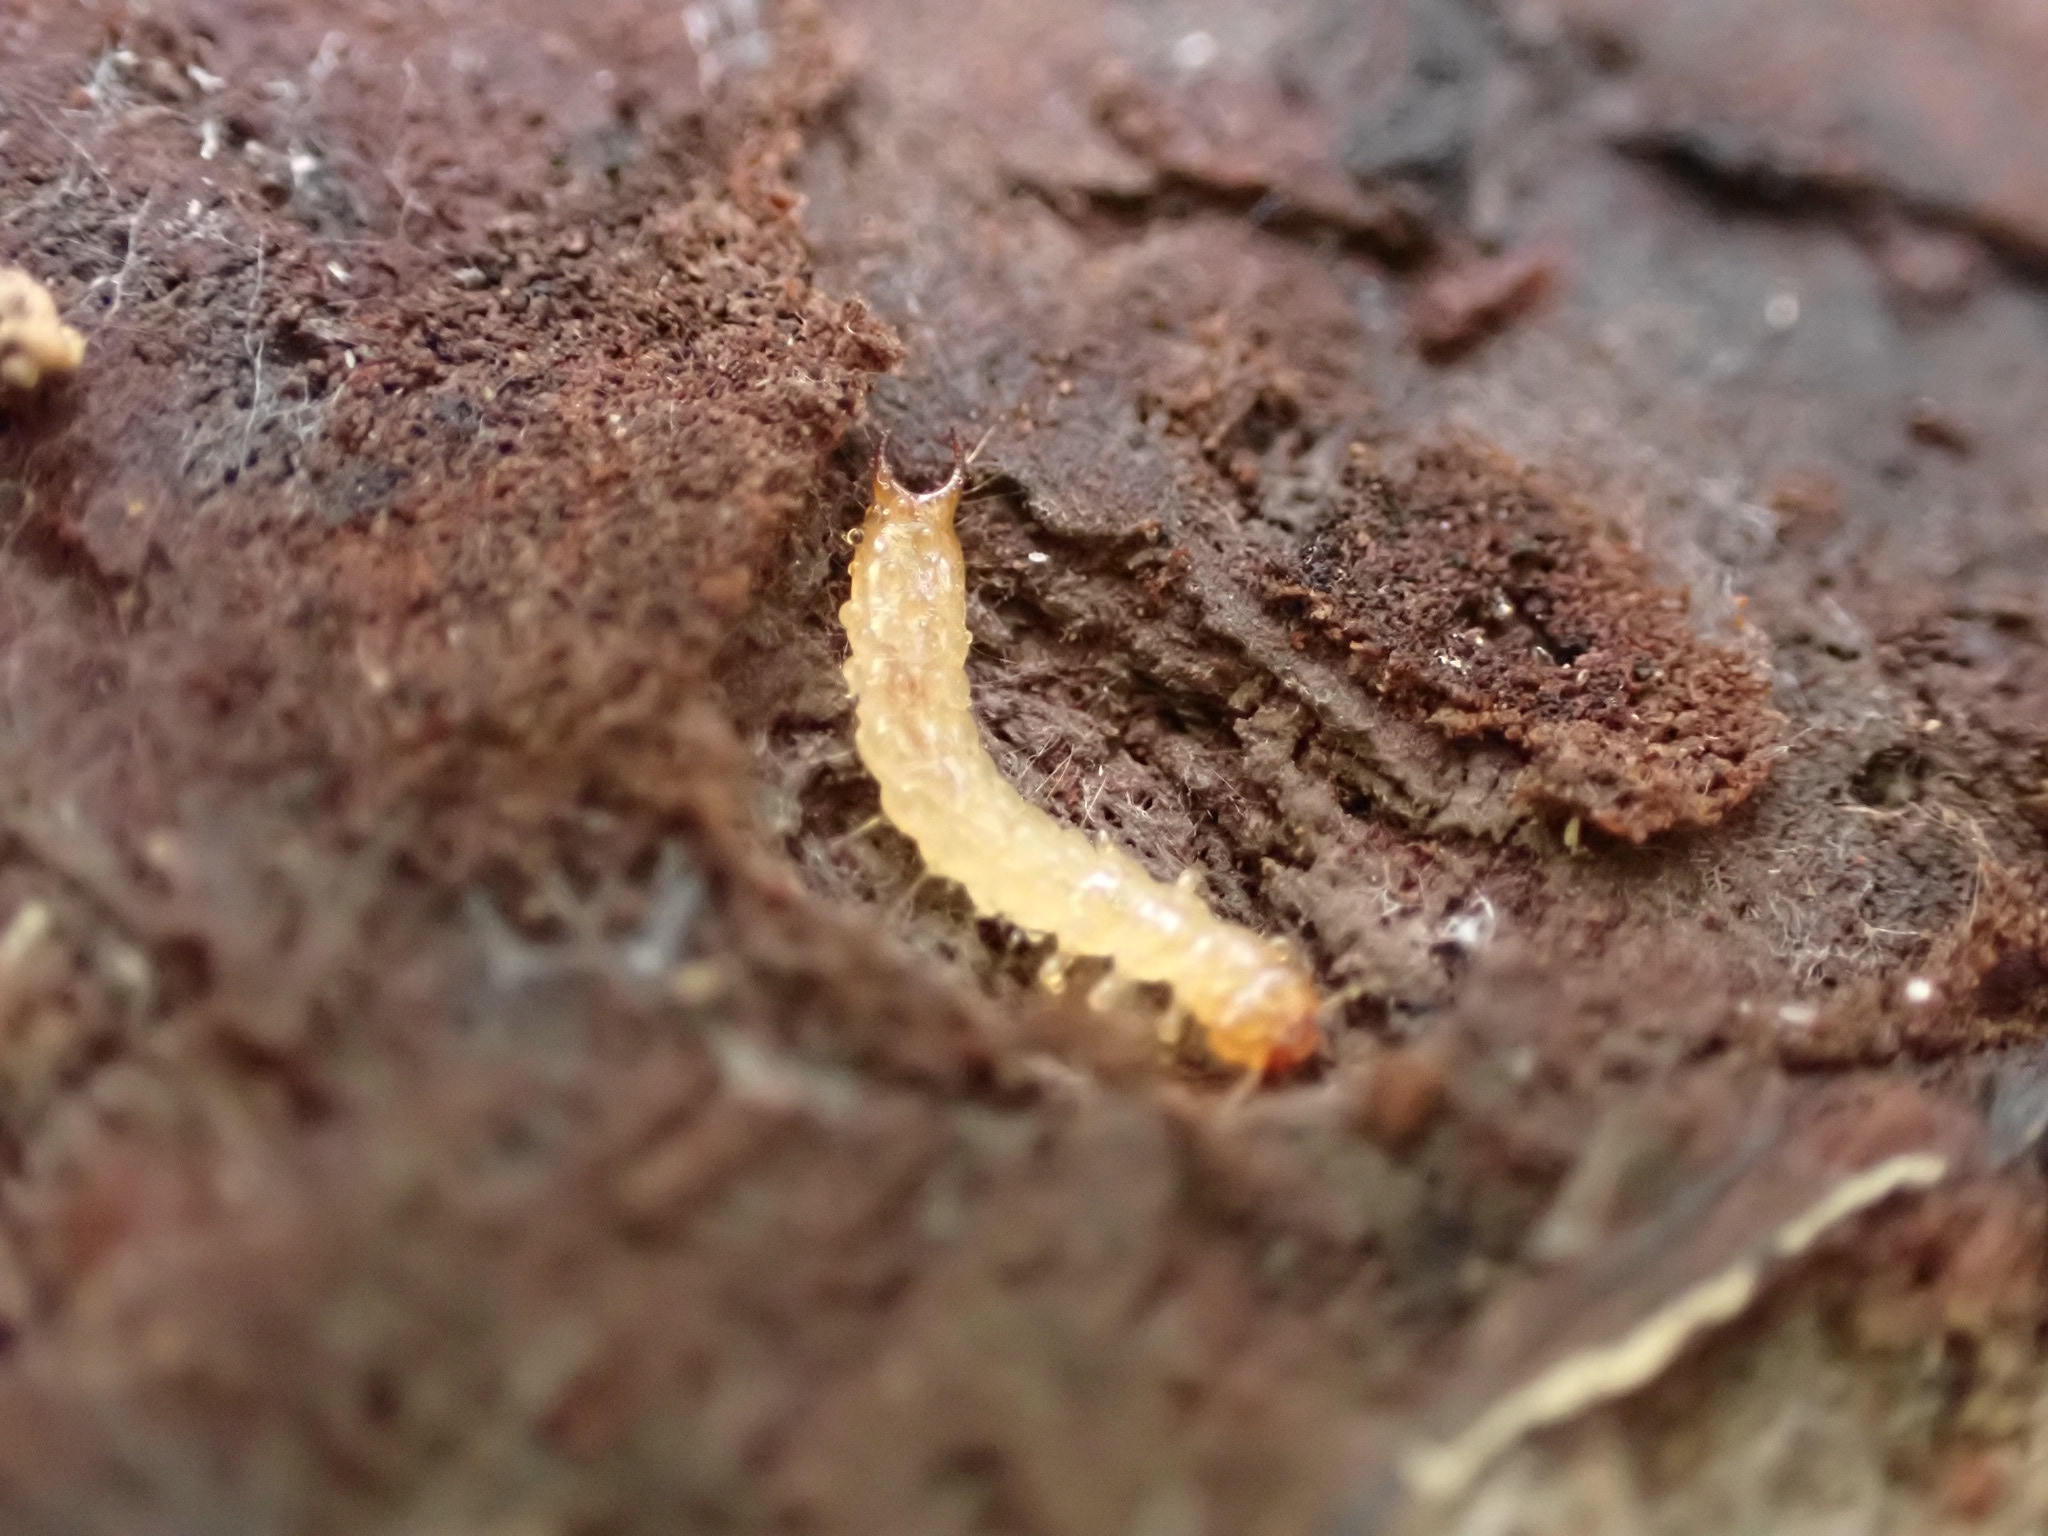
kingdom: Animalia
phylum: Arthropoda
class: Insecta
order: Coleoptera
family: Pyrochroidae
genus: Schizotus
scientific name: Schizotus pectinicornis
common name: Scarce cardinal beetle
